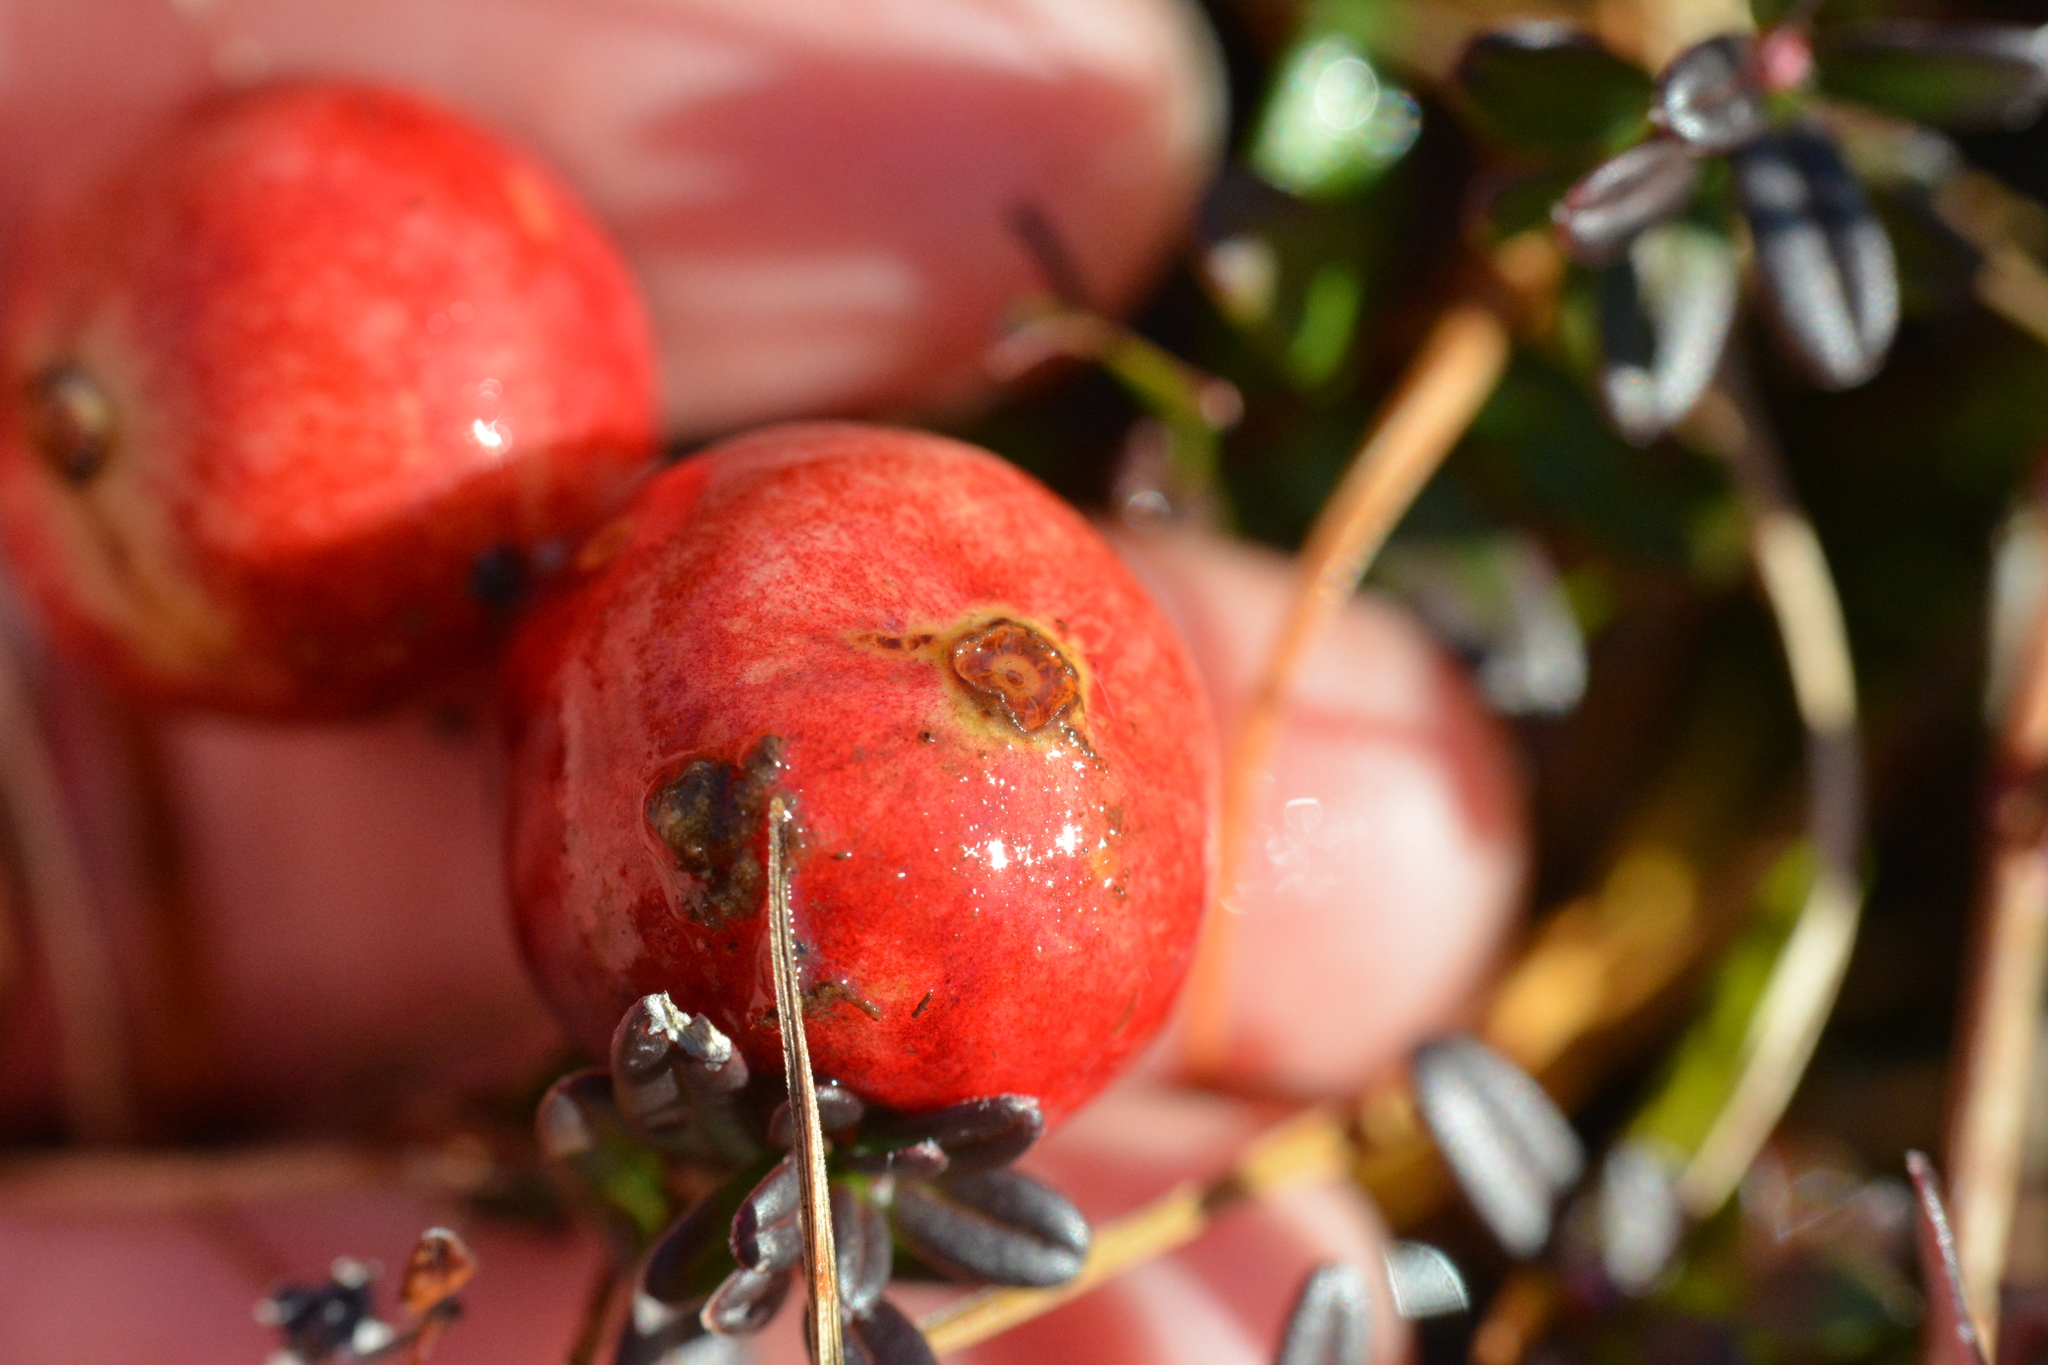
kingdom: Plantae
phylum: Tracheophyta
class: Magnoliopsida
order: Ericales
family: Ericaceae
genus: Vaccinium
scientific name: Vaccinium macrocarpon
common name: American cranberry
